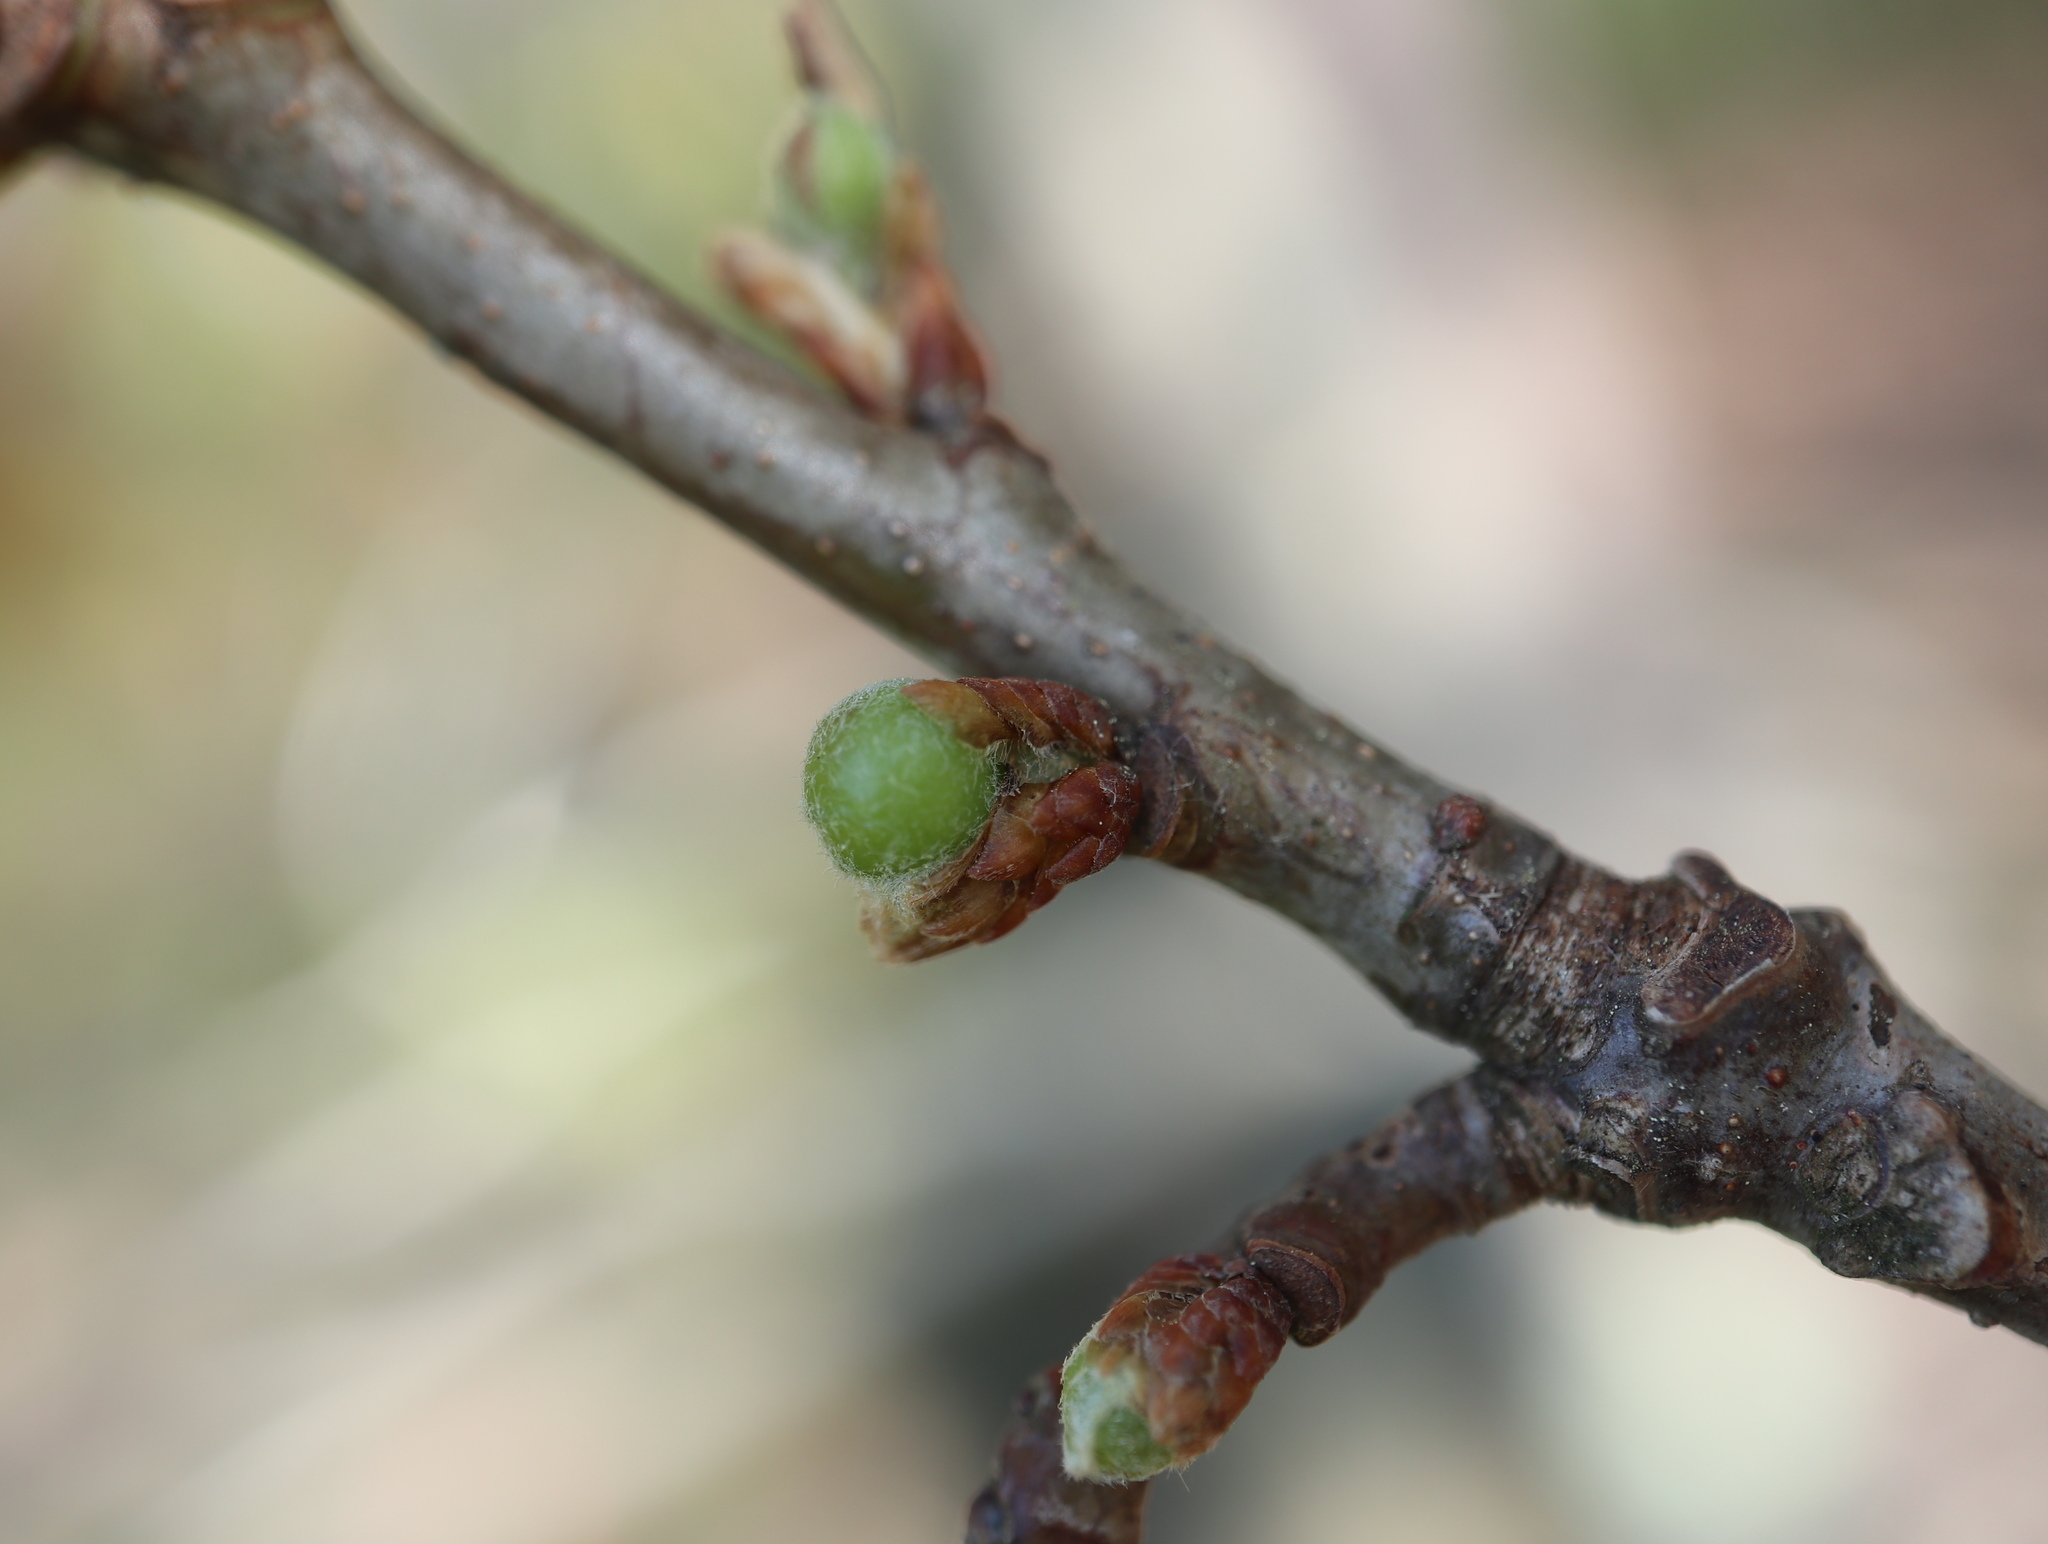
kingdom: Animalia
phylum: Arthropoda
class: Insecta
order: Hymenoptera
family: Cynipidae
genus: Andricus
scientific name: Andricus
